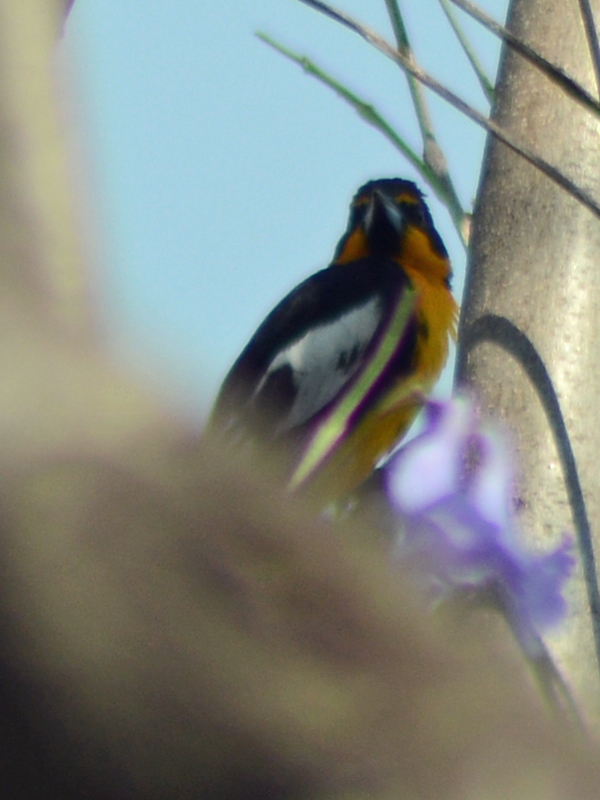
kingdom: Animalia
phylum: Chordata
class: Aves
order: Passeriformes
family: Icteridae
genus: Icterus
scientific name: Icterus abeillei
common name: Black-backed oriole
